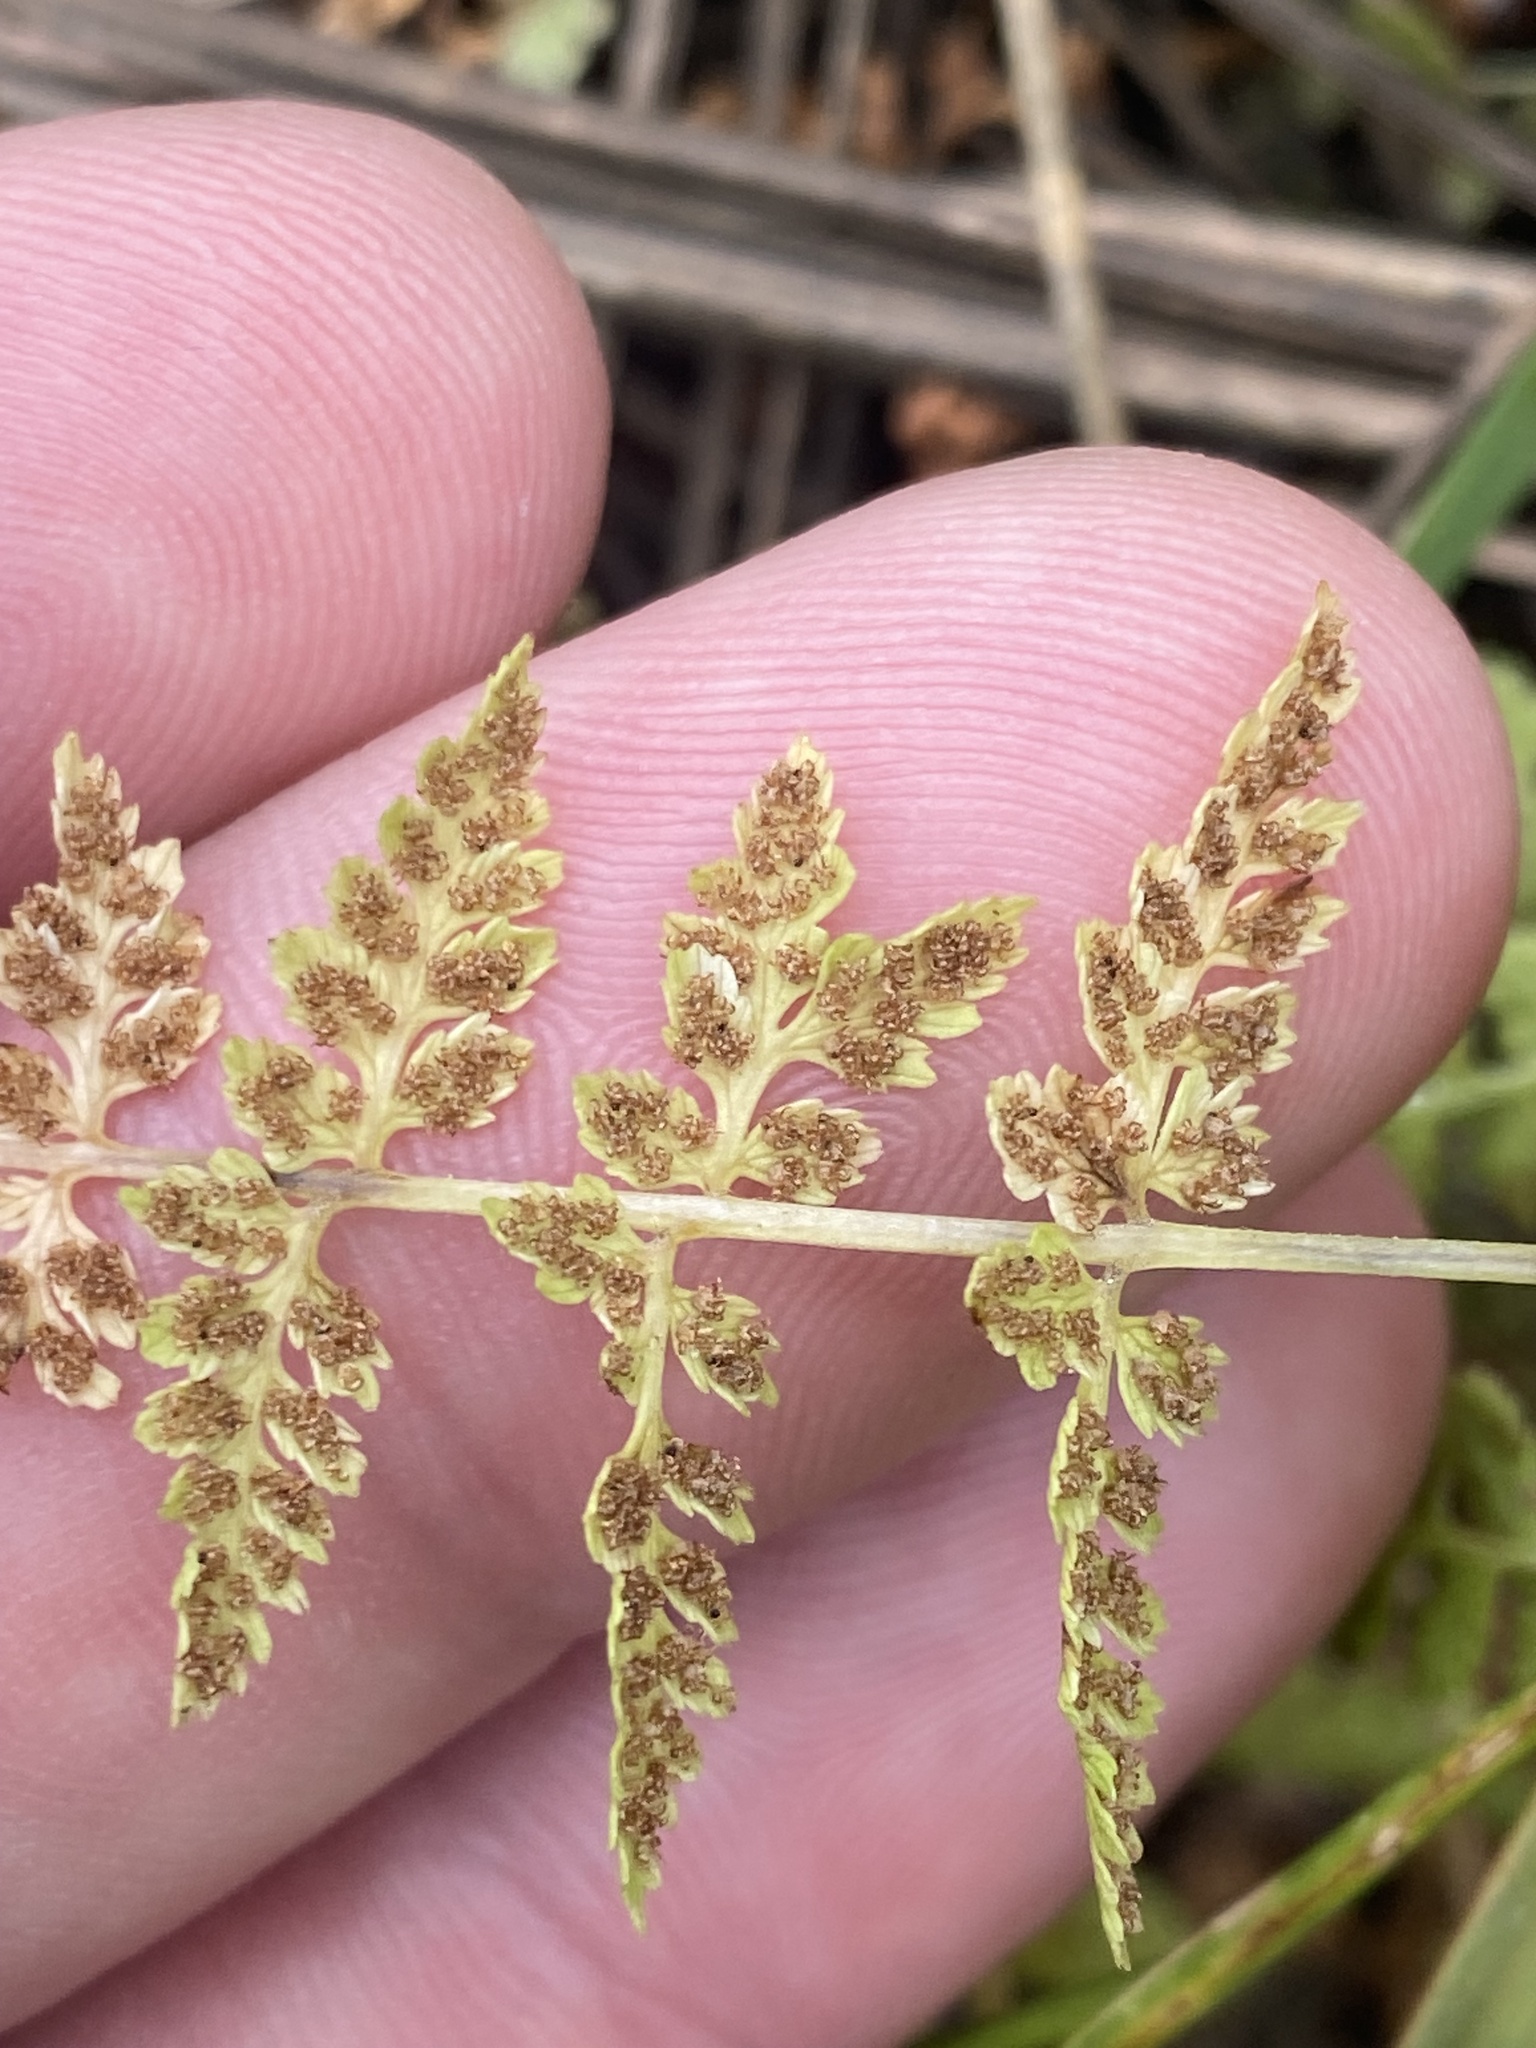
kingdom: Plantae
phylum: Tracheophyta
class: Polypodiopsida
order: Polypodiales
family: Woodsiaceae
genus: Physematium
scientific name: Physematium scopulinum
